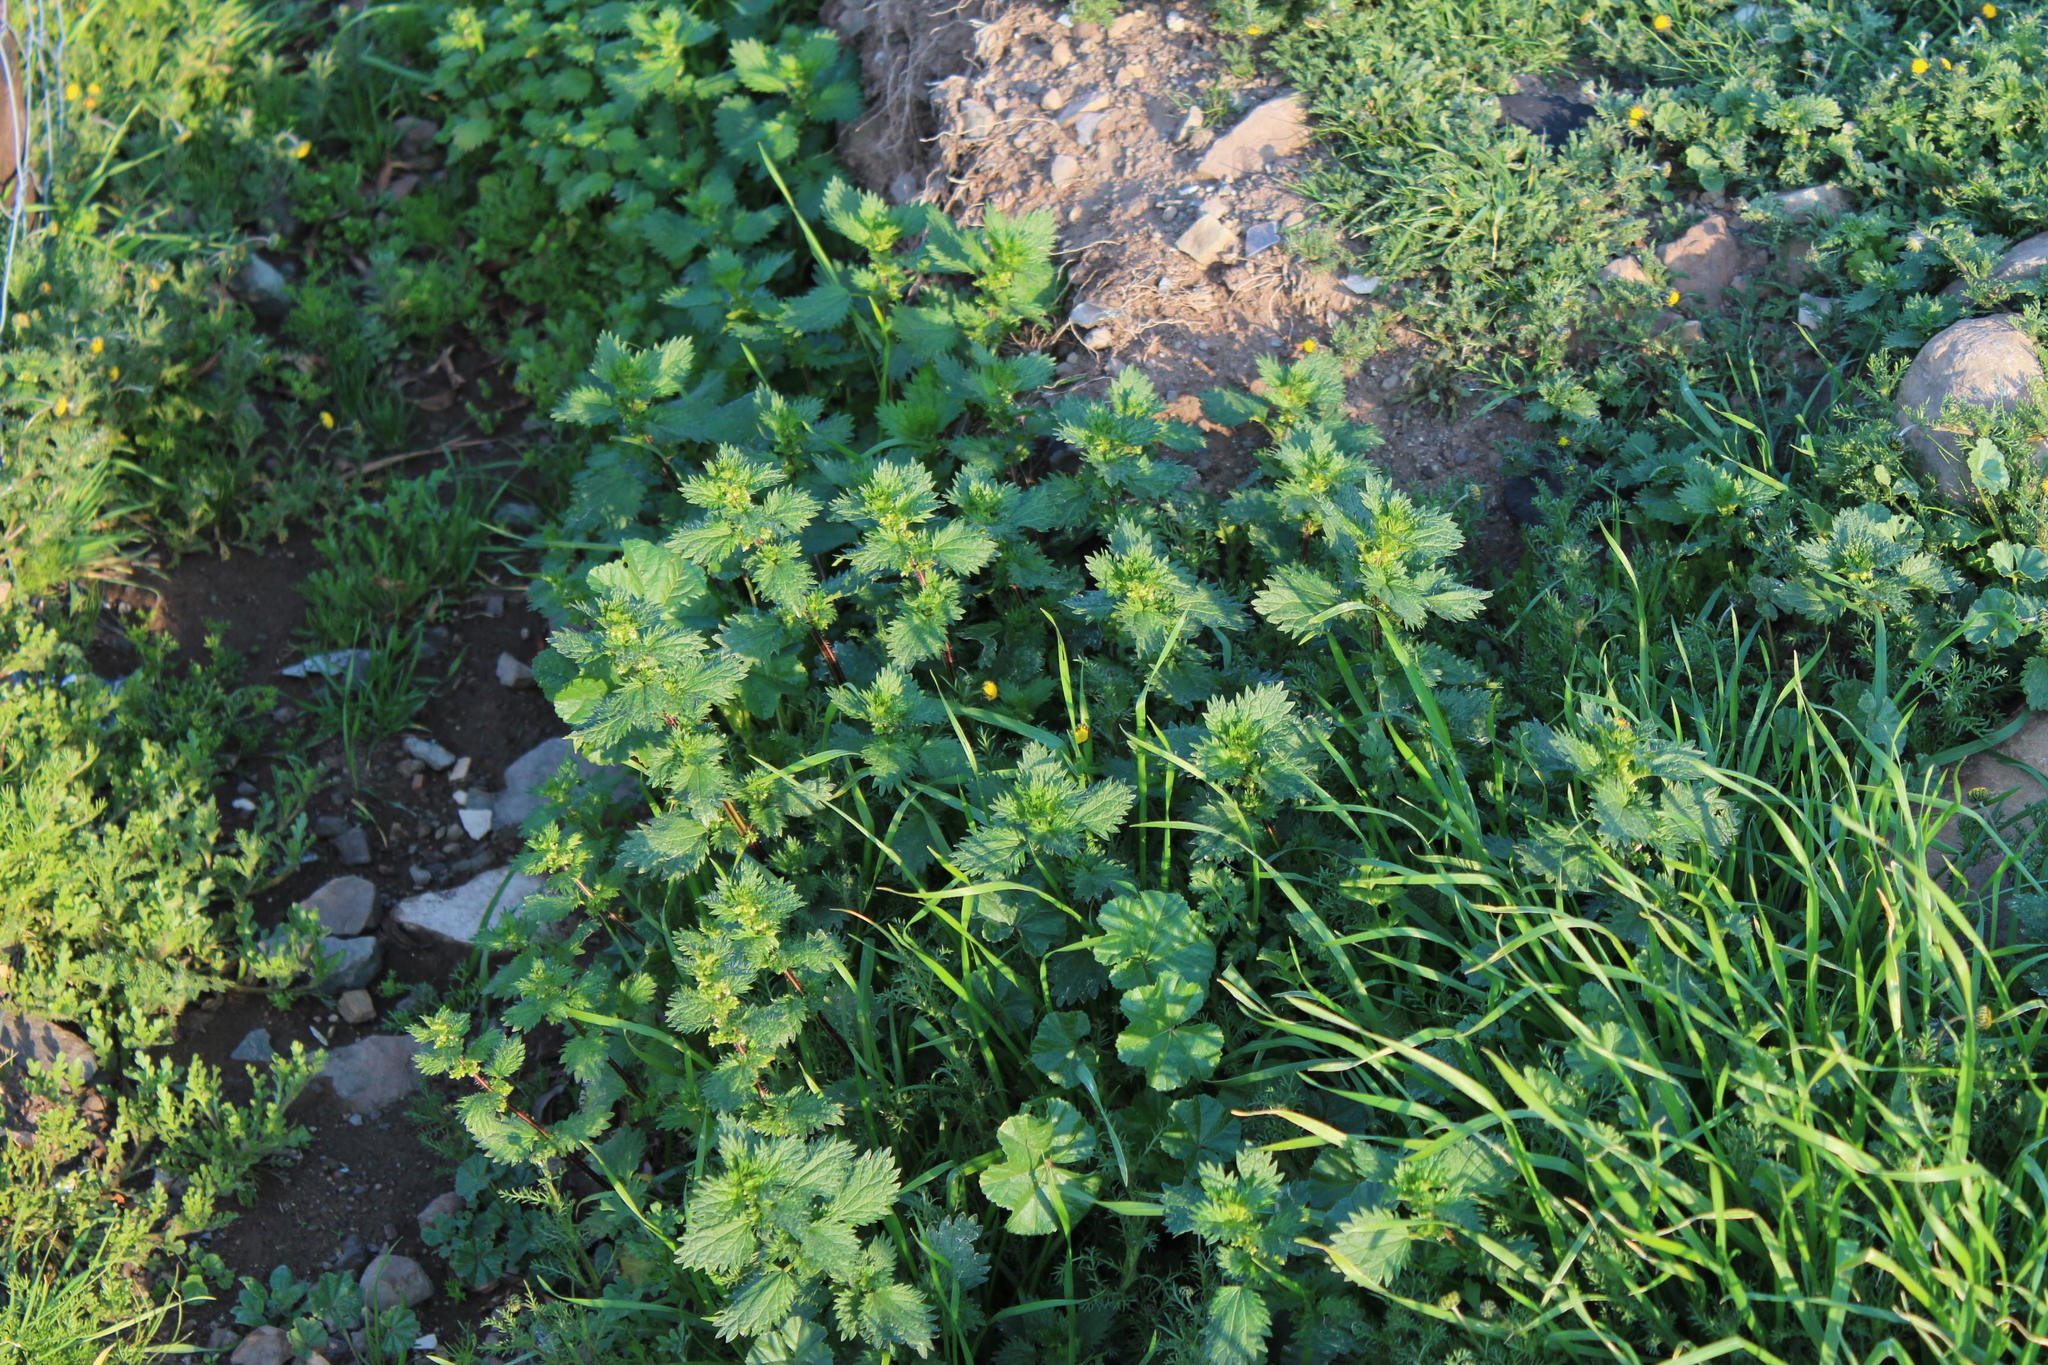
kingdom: Plantae
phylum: Tracheophyta
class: Magnoliopsida
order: Rosales
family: Urticaceae
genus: Urtica
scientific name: Urtica urens
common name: Dwarf nettle
